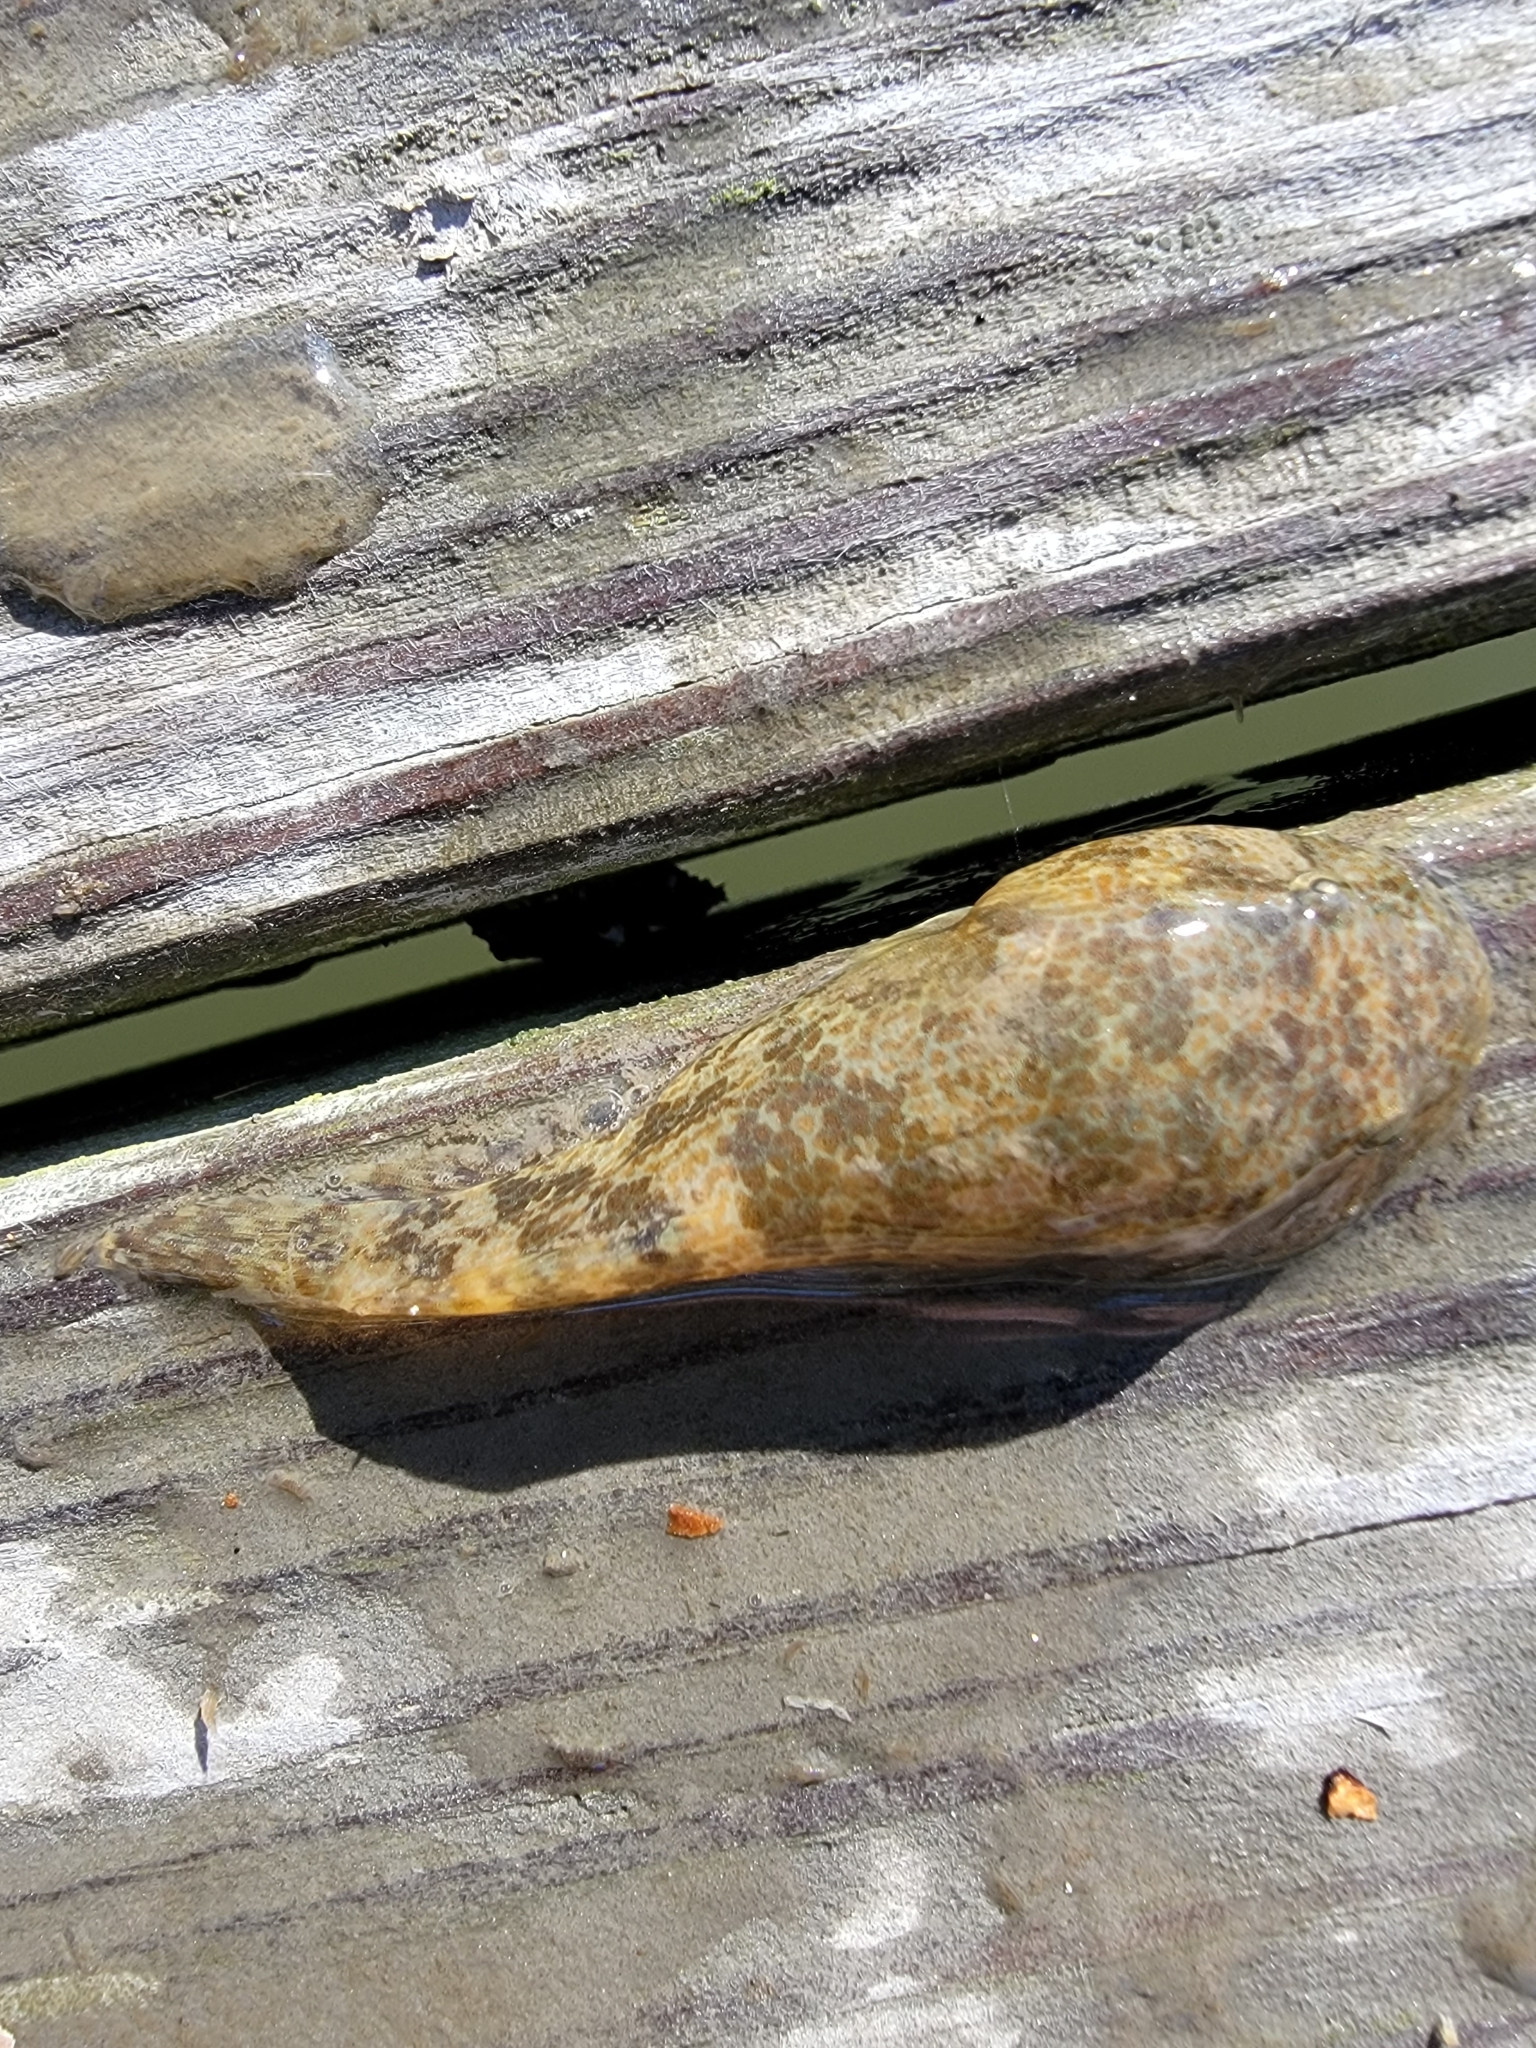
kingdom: Animalia
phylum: Chordata
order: Gobiesociformes
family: Gobiesocidae
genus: Gobiesox
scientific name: Gobiesox strumosus
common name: Skilletfish
